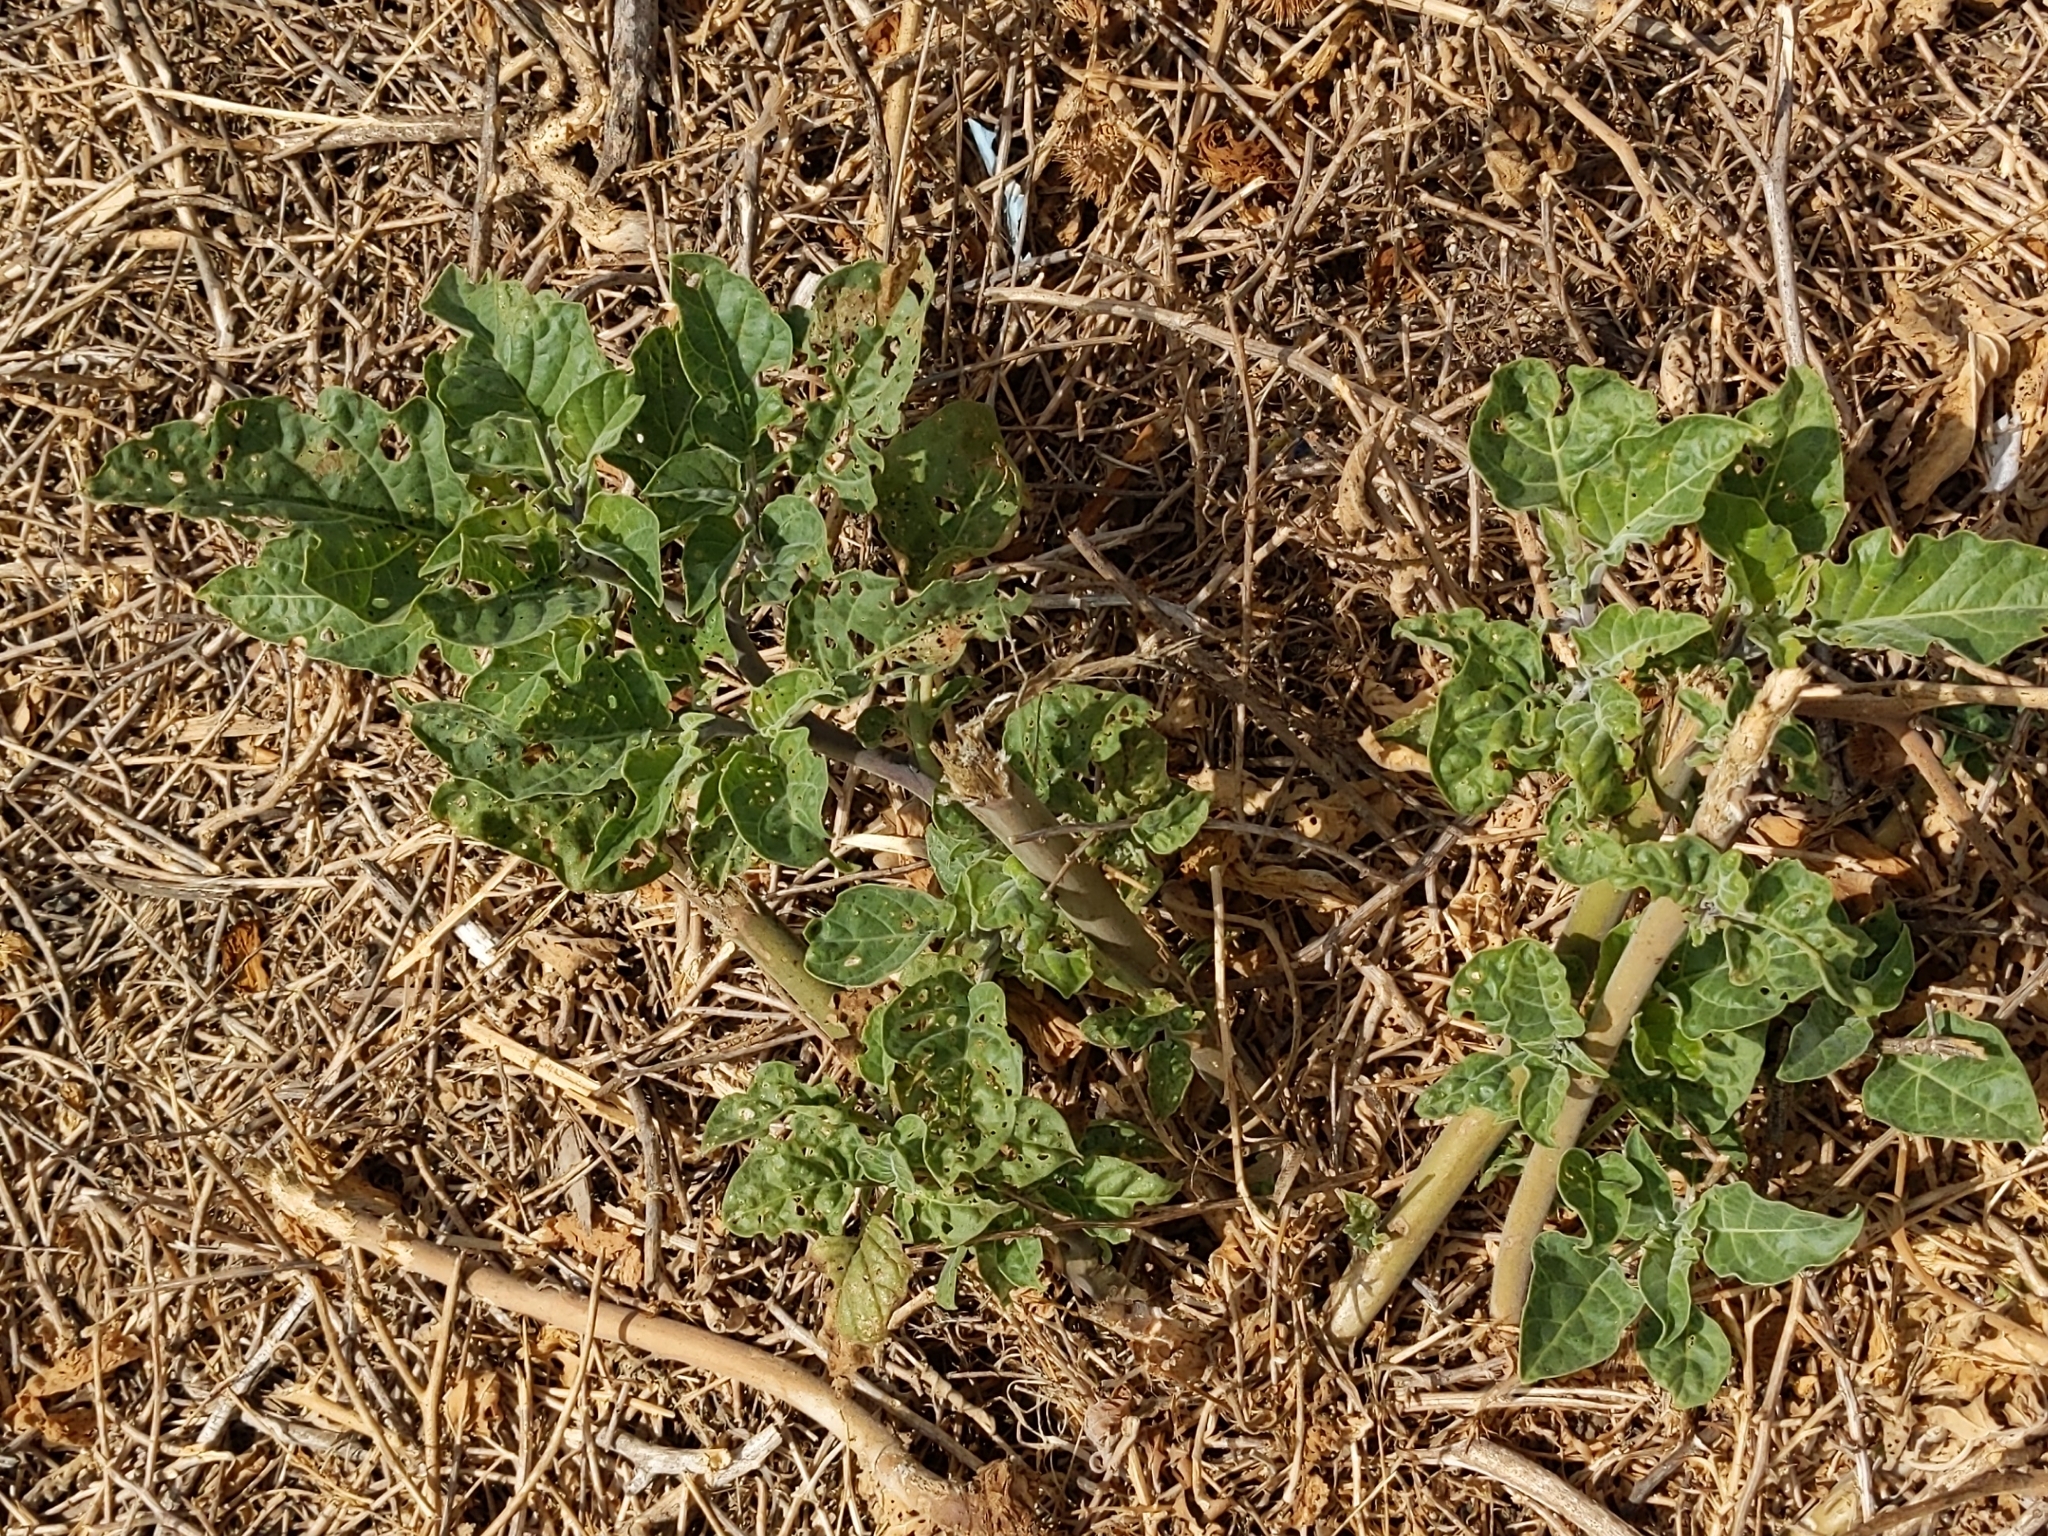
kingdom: Plantae
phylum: Tracheophyta
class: Magnoliopsida
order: Solanales
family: Solanaceae
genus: Datura
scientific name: Datura wrightii
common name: Sacred thorn-apple
